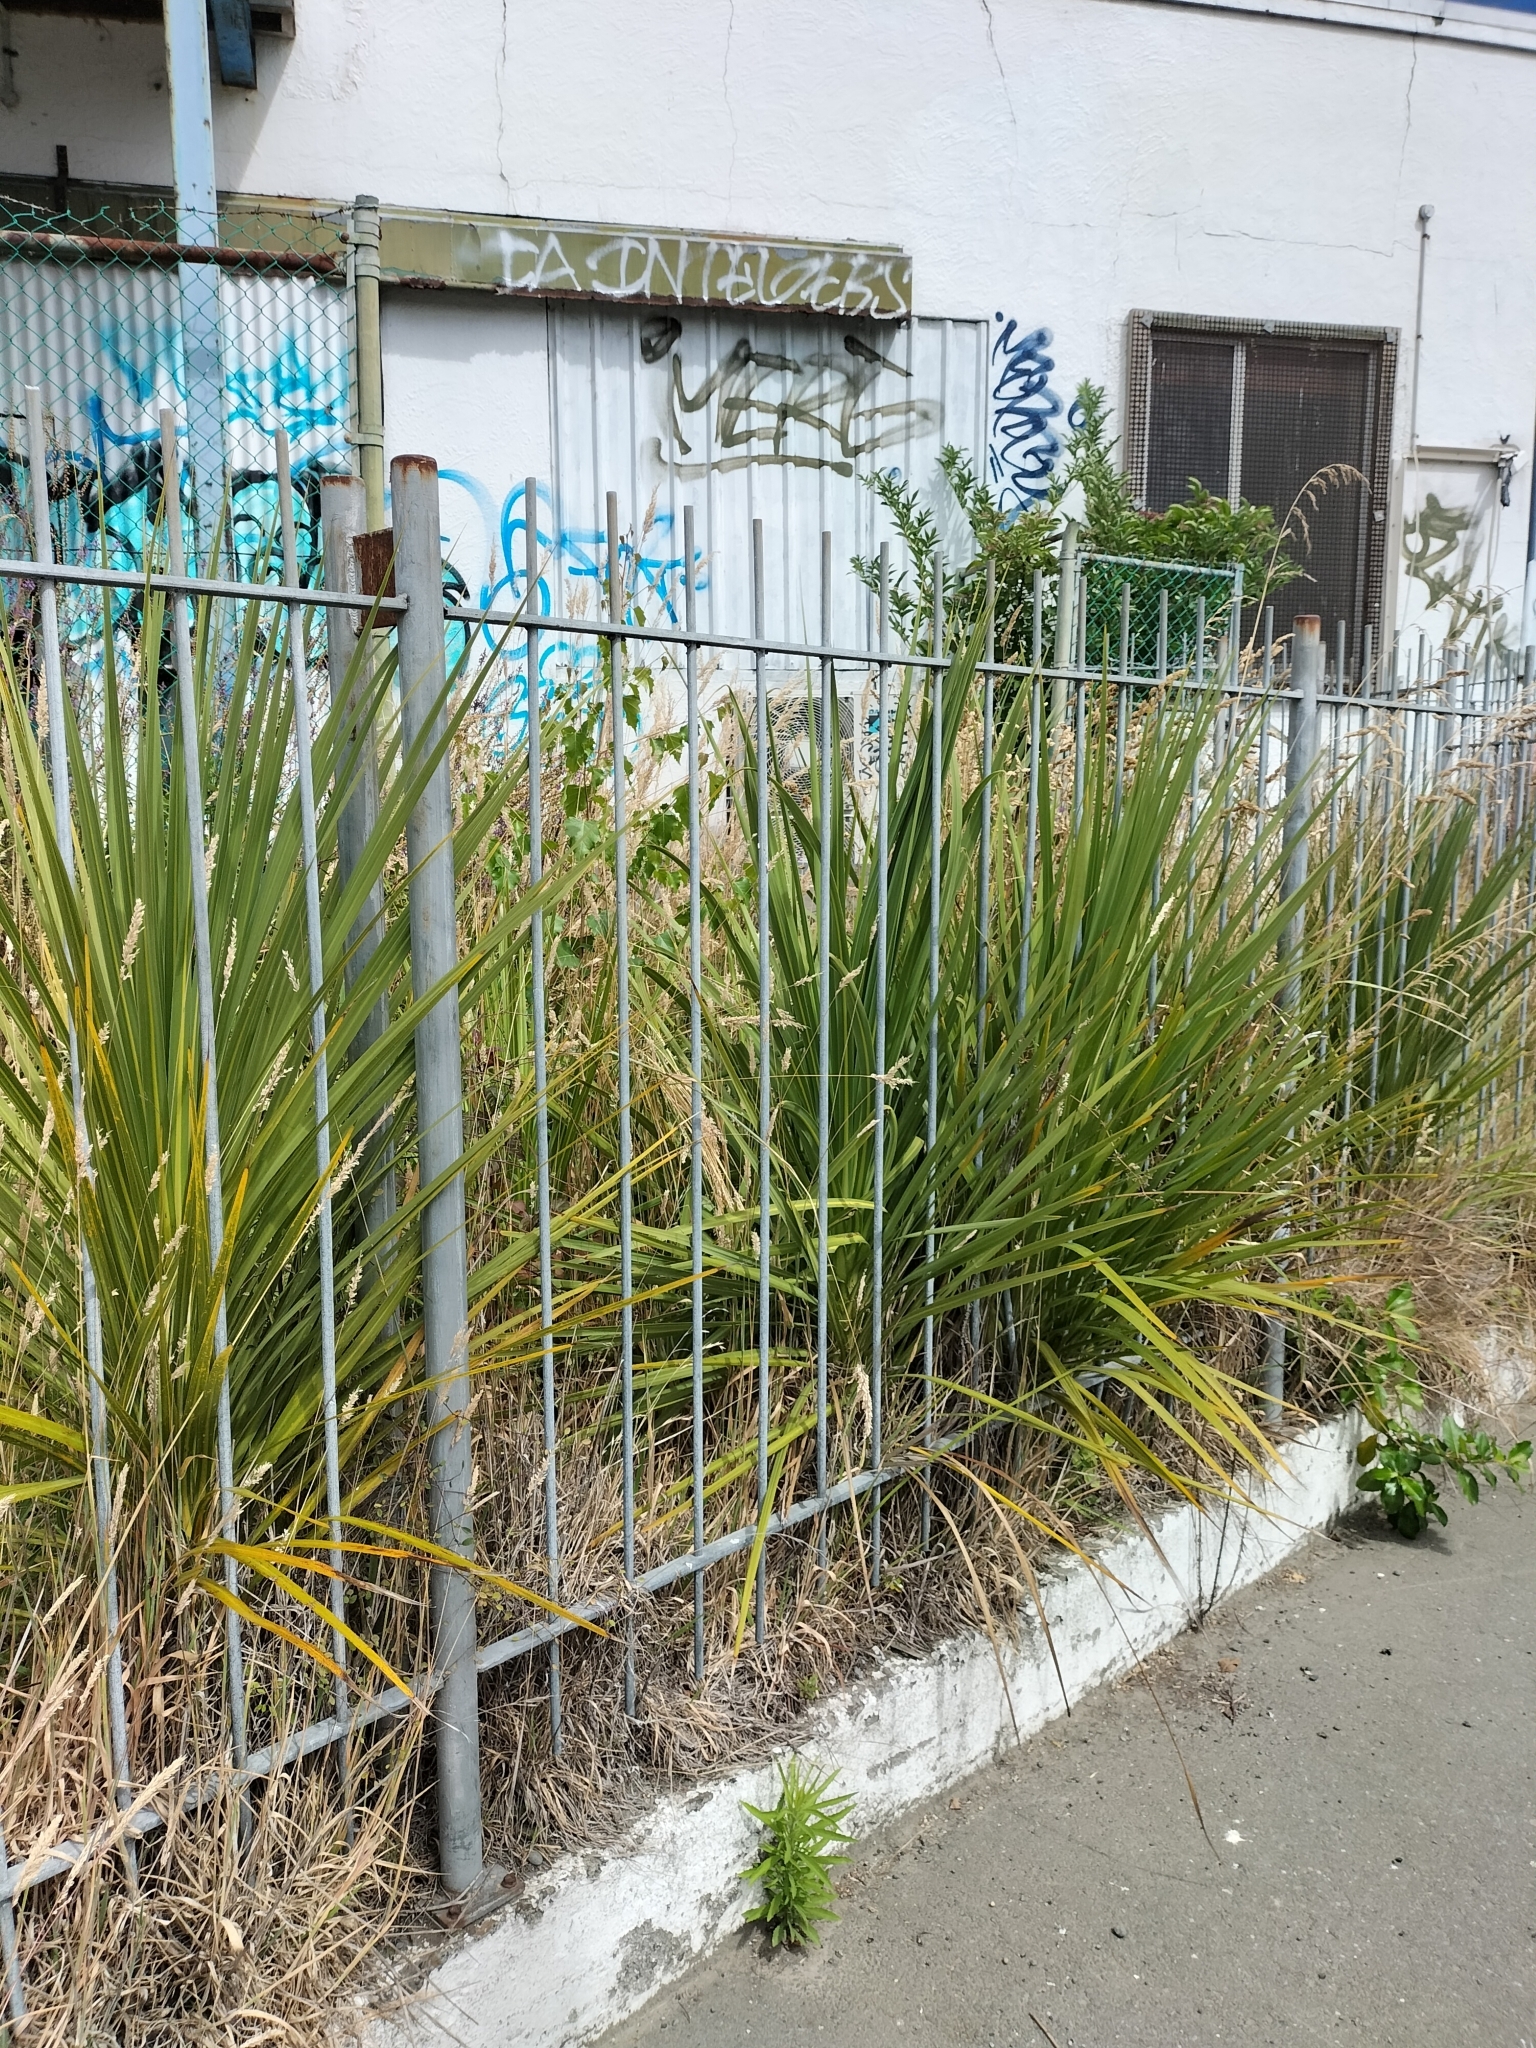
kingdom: Plantae
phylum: Tracheophyta
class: Liliopsida
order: Asparagales
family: Asparagaceae
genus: Cordyline
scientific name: Cordyline australis
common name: Cabbage-palm
